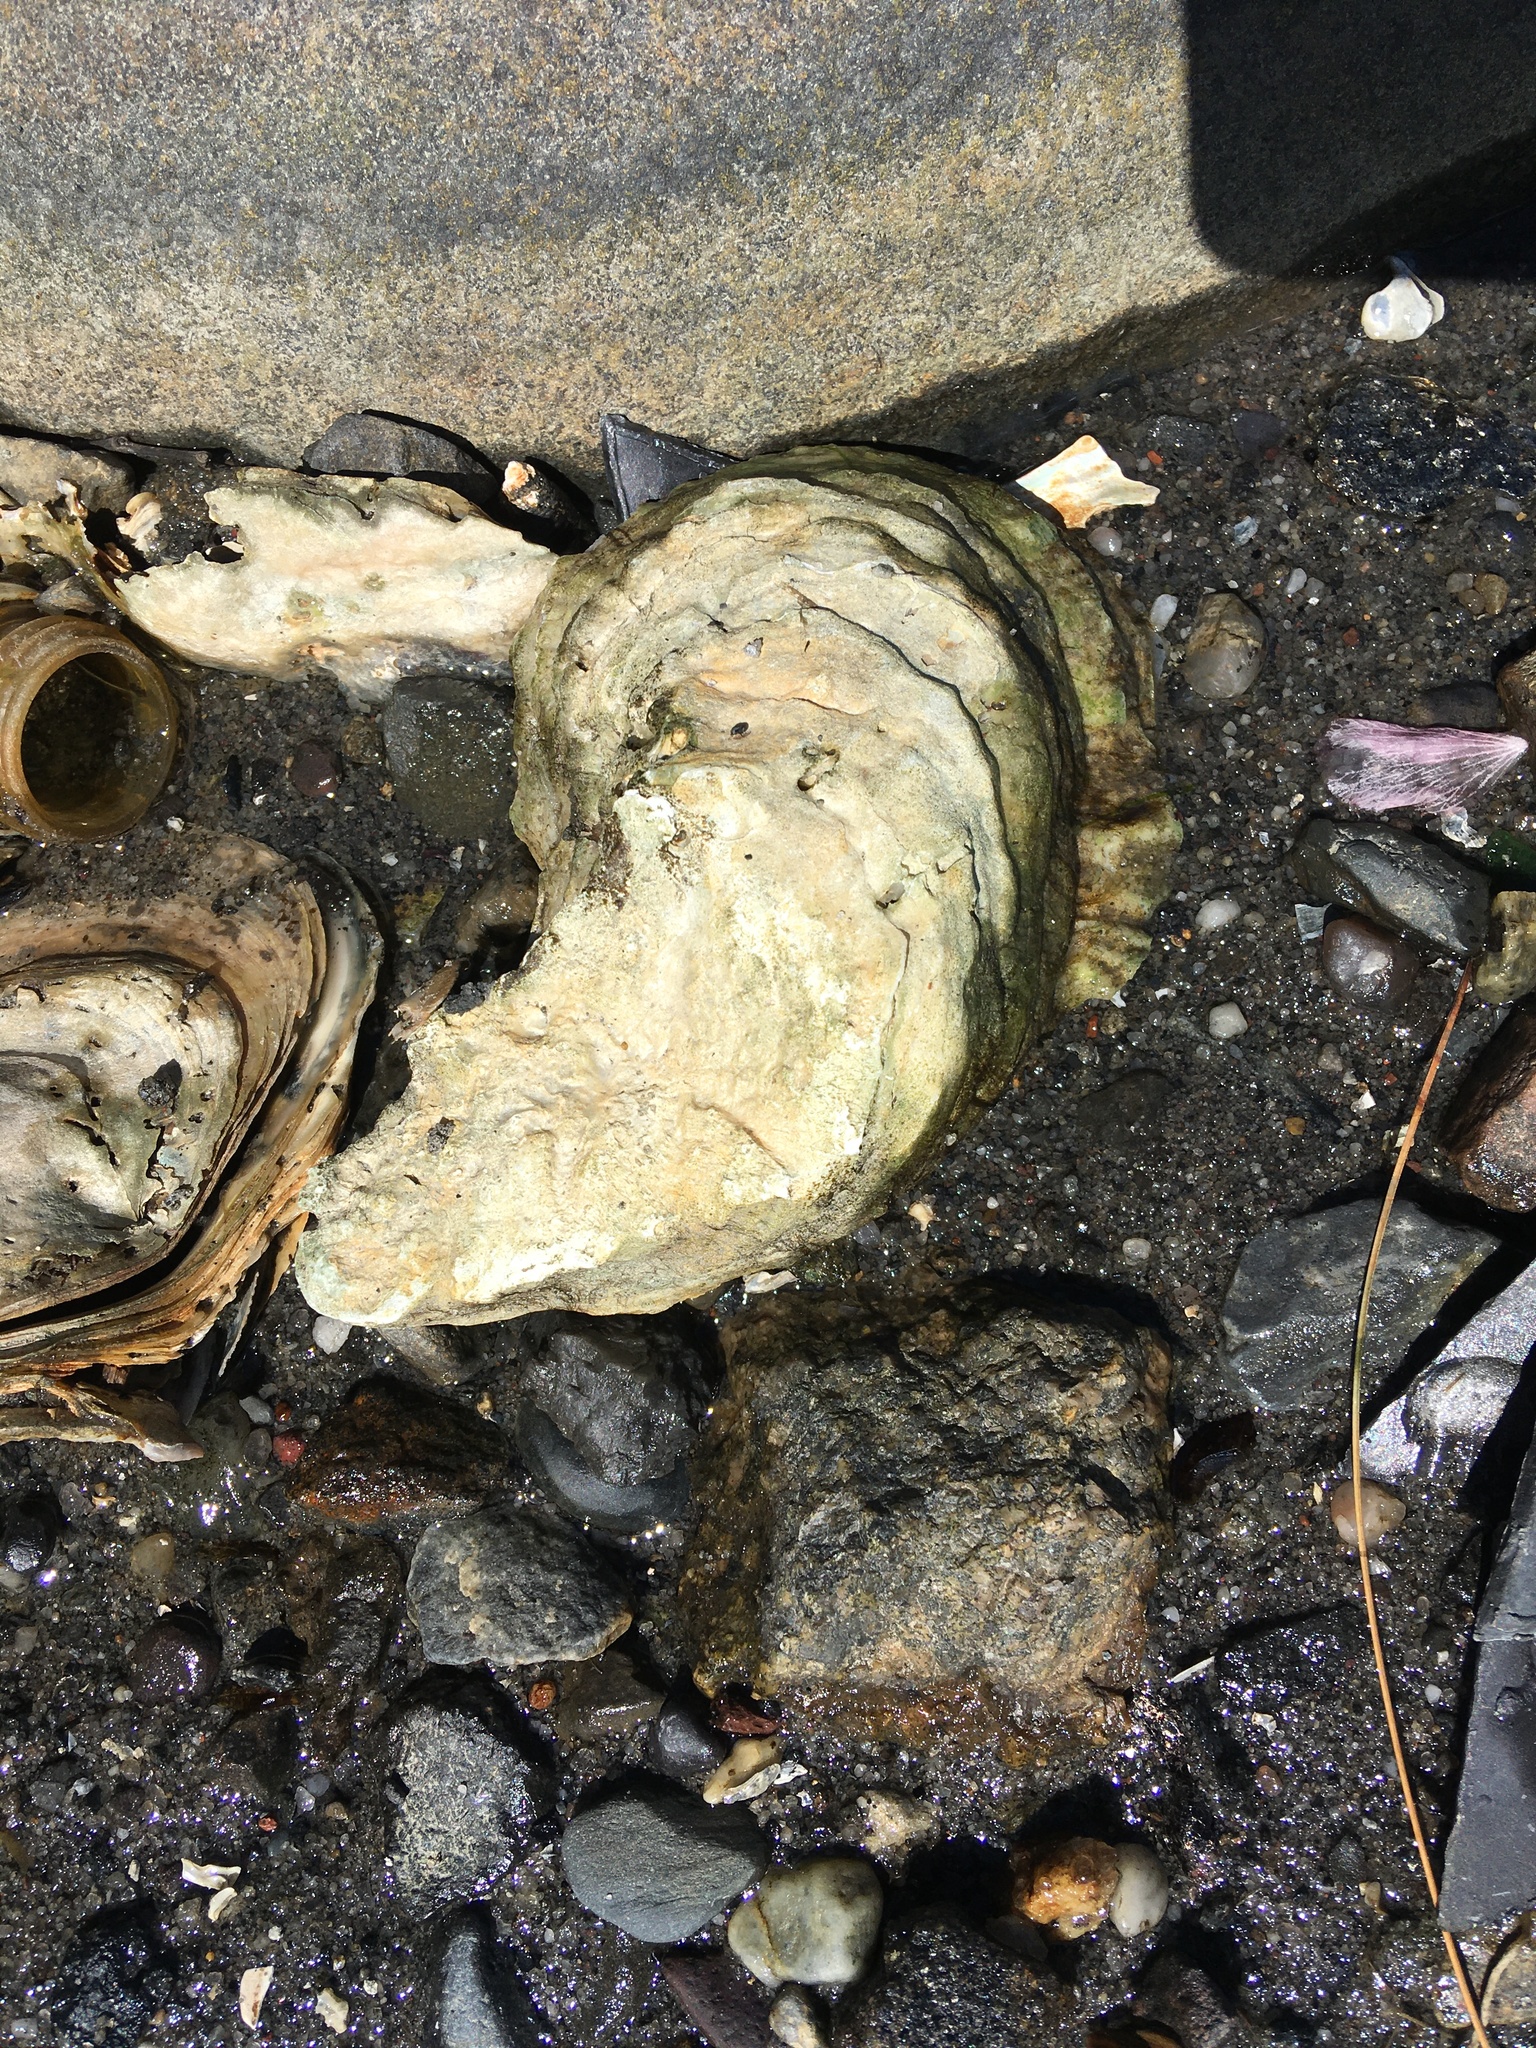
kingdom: Animalia
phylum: Mollusca
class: Bivalvia
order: Ostreida
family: Ostreidae
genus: Crassostrea
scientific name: Crassostrea virginica
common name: American oyster
